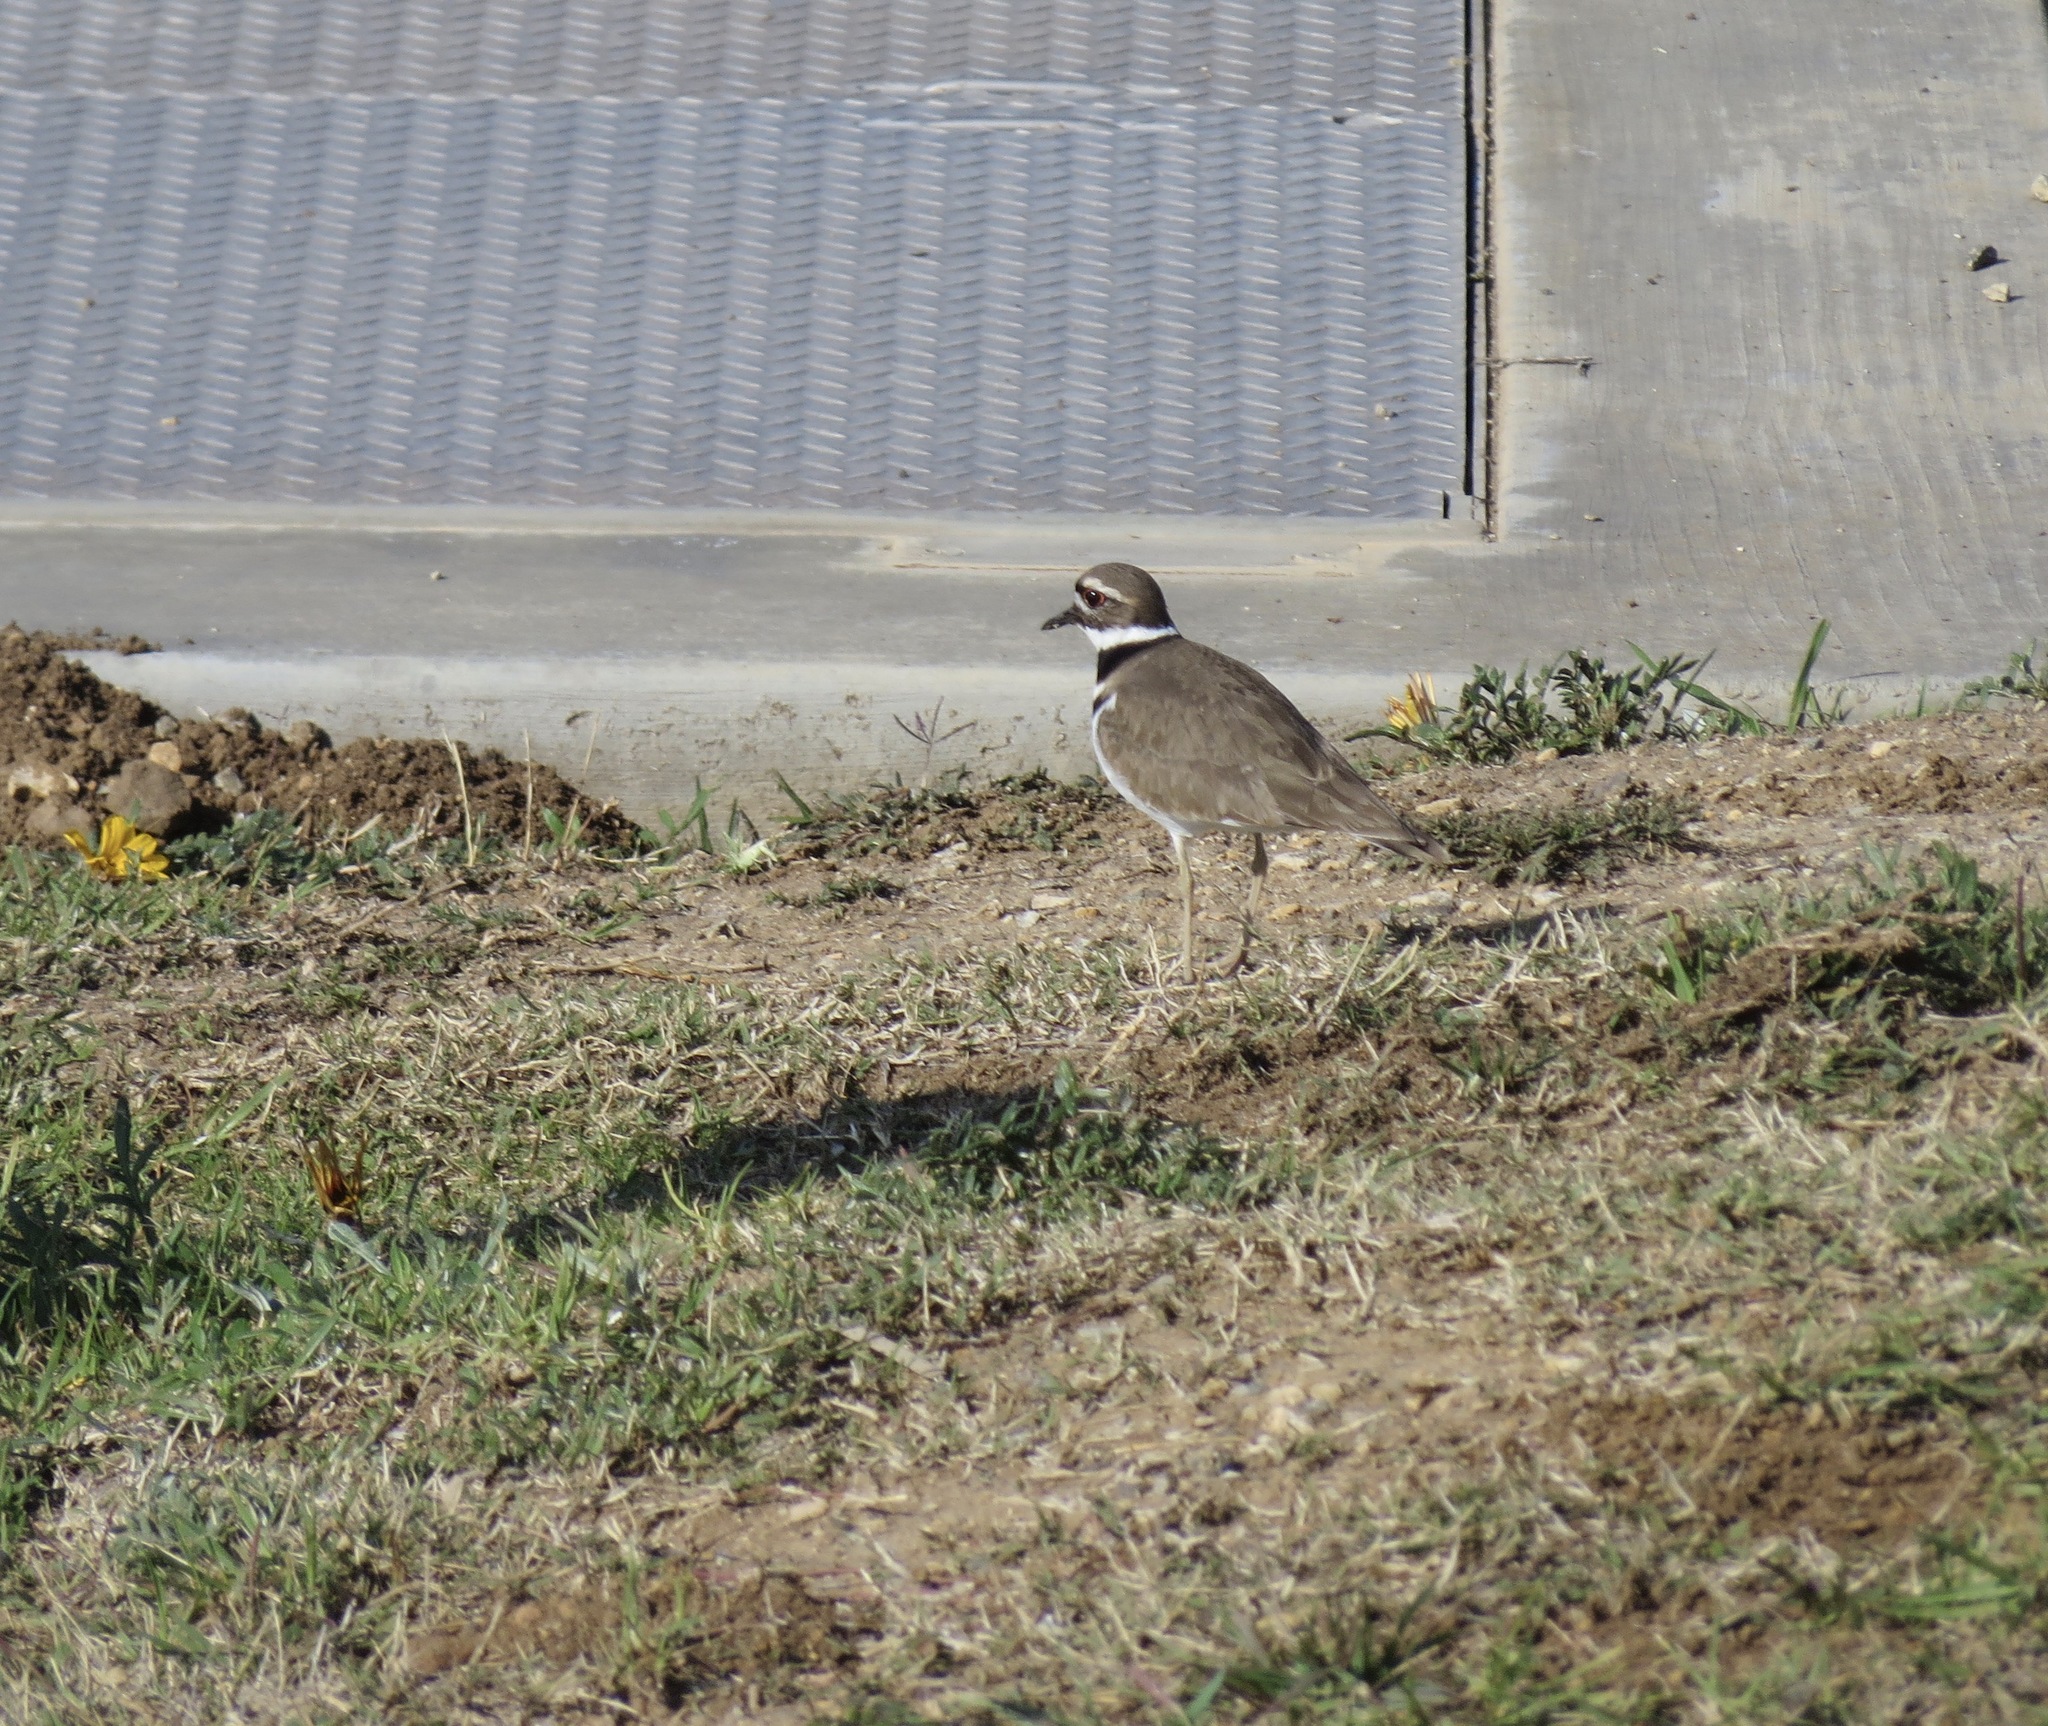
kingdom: Animalia
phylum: Chordata
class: Aves
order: Charadriiformes
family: Charadriidae
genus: Charadrius
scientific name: Charadrius vociferus
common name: Killdeer
